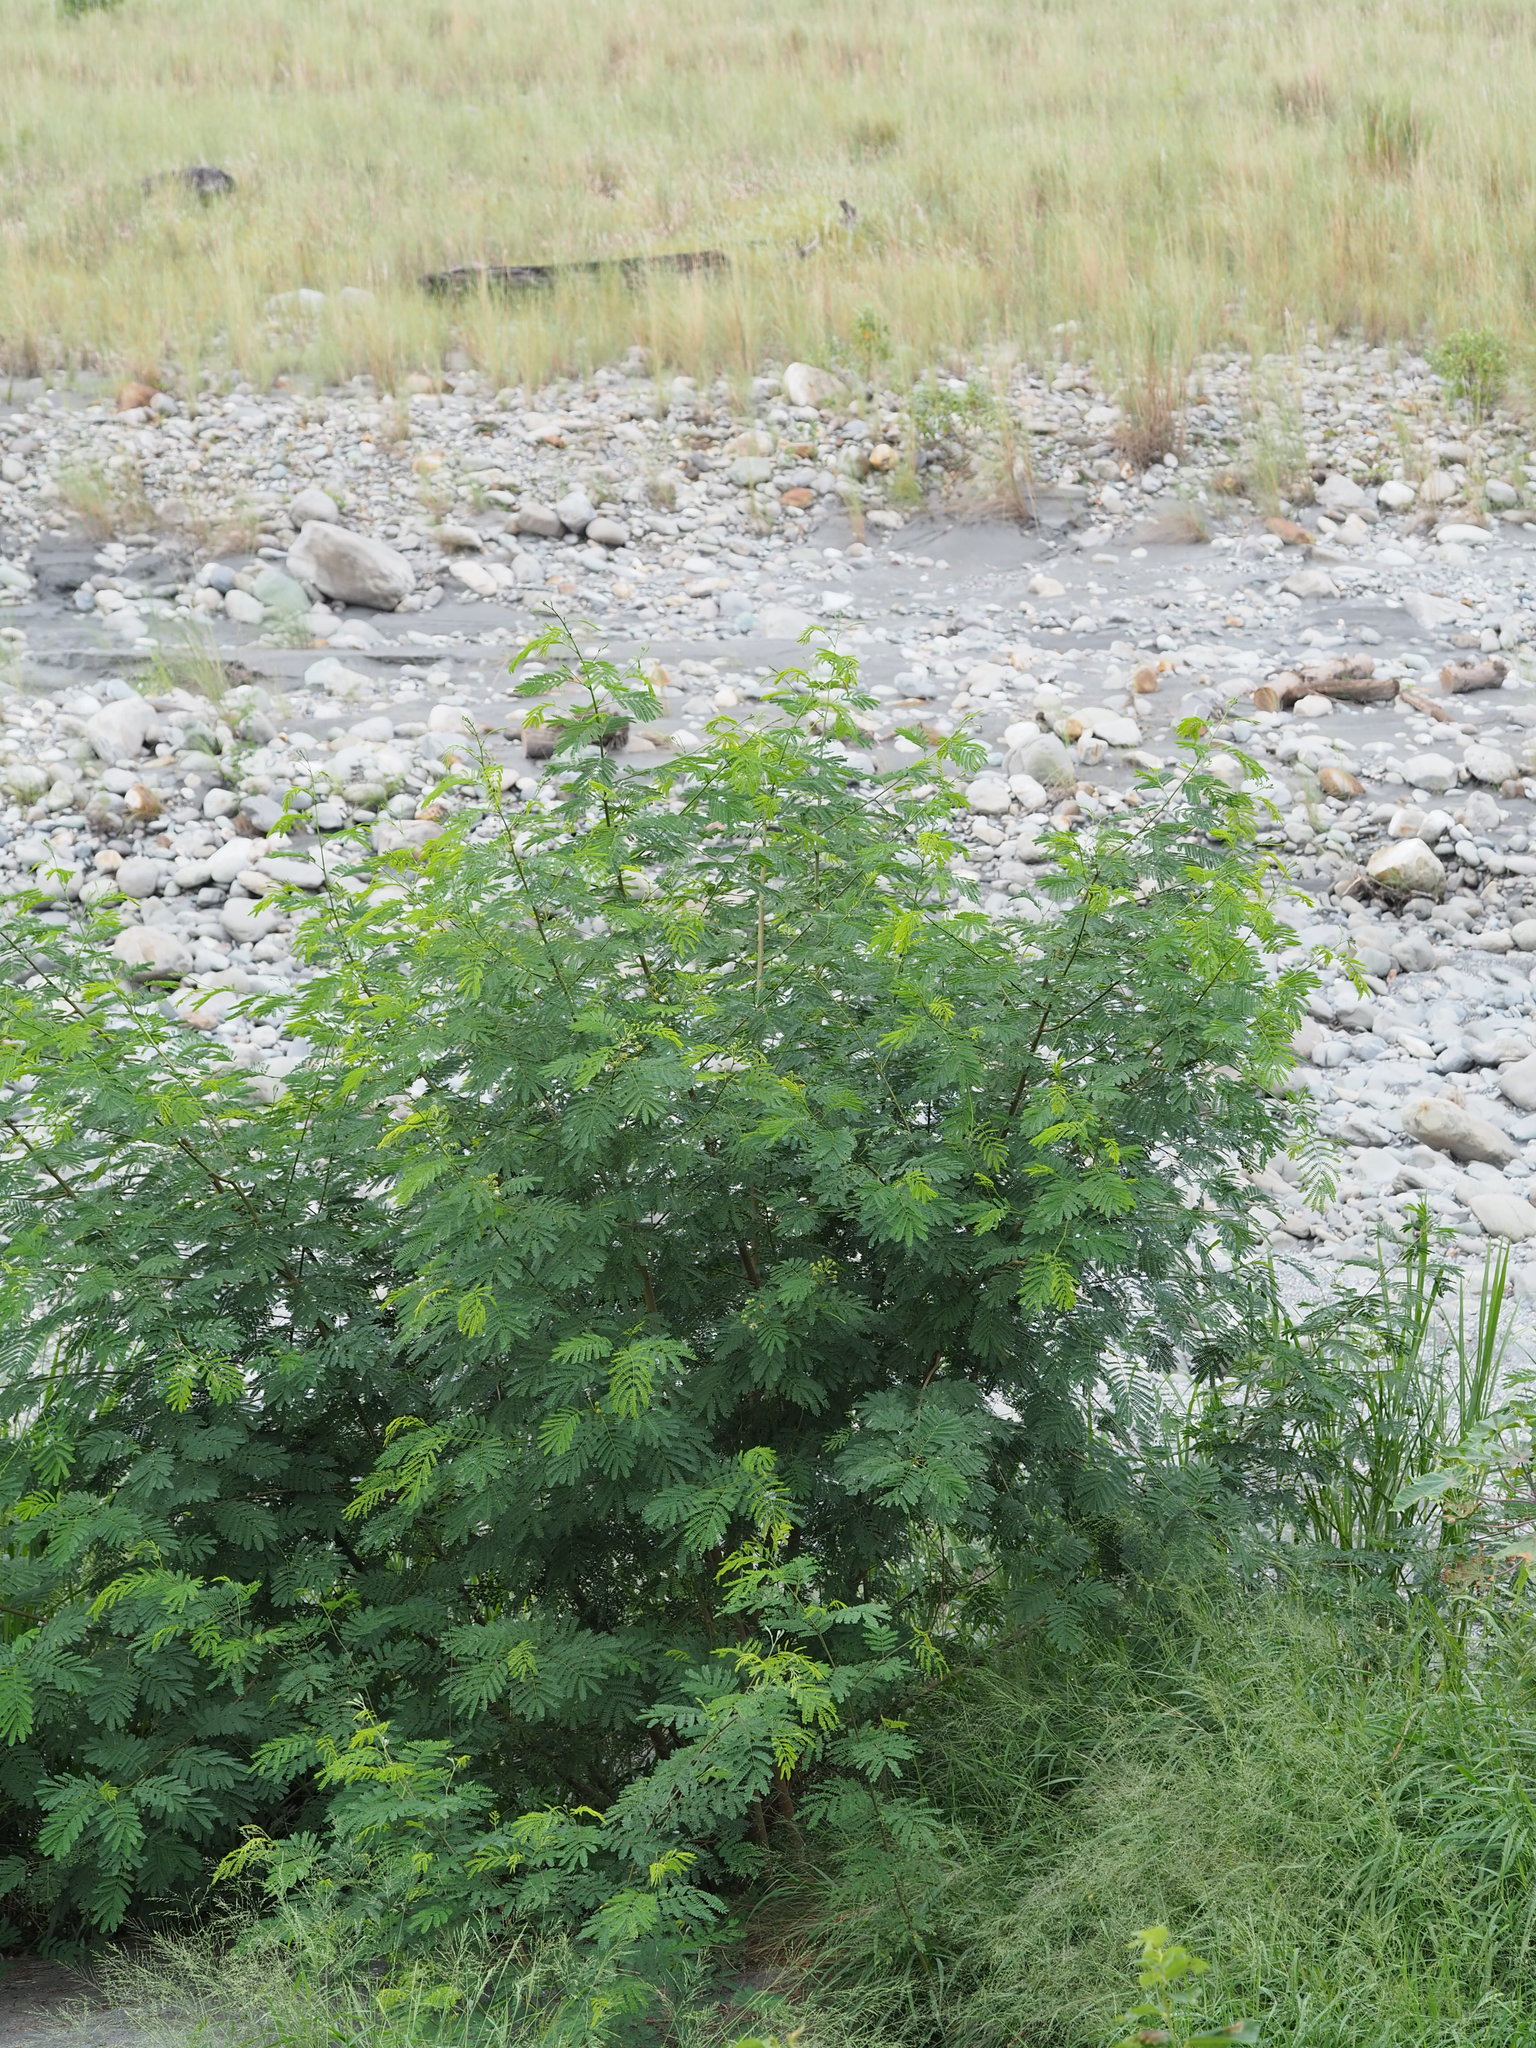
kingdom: Plantae
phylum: Tracheophyta
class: Magnoliopsida
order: Fabales
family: Fabaceae
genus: Leucaena
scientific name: Leucaena leucocephala
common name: White leadtree
